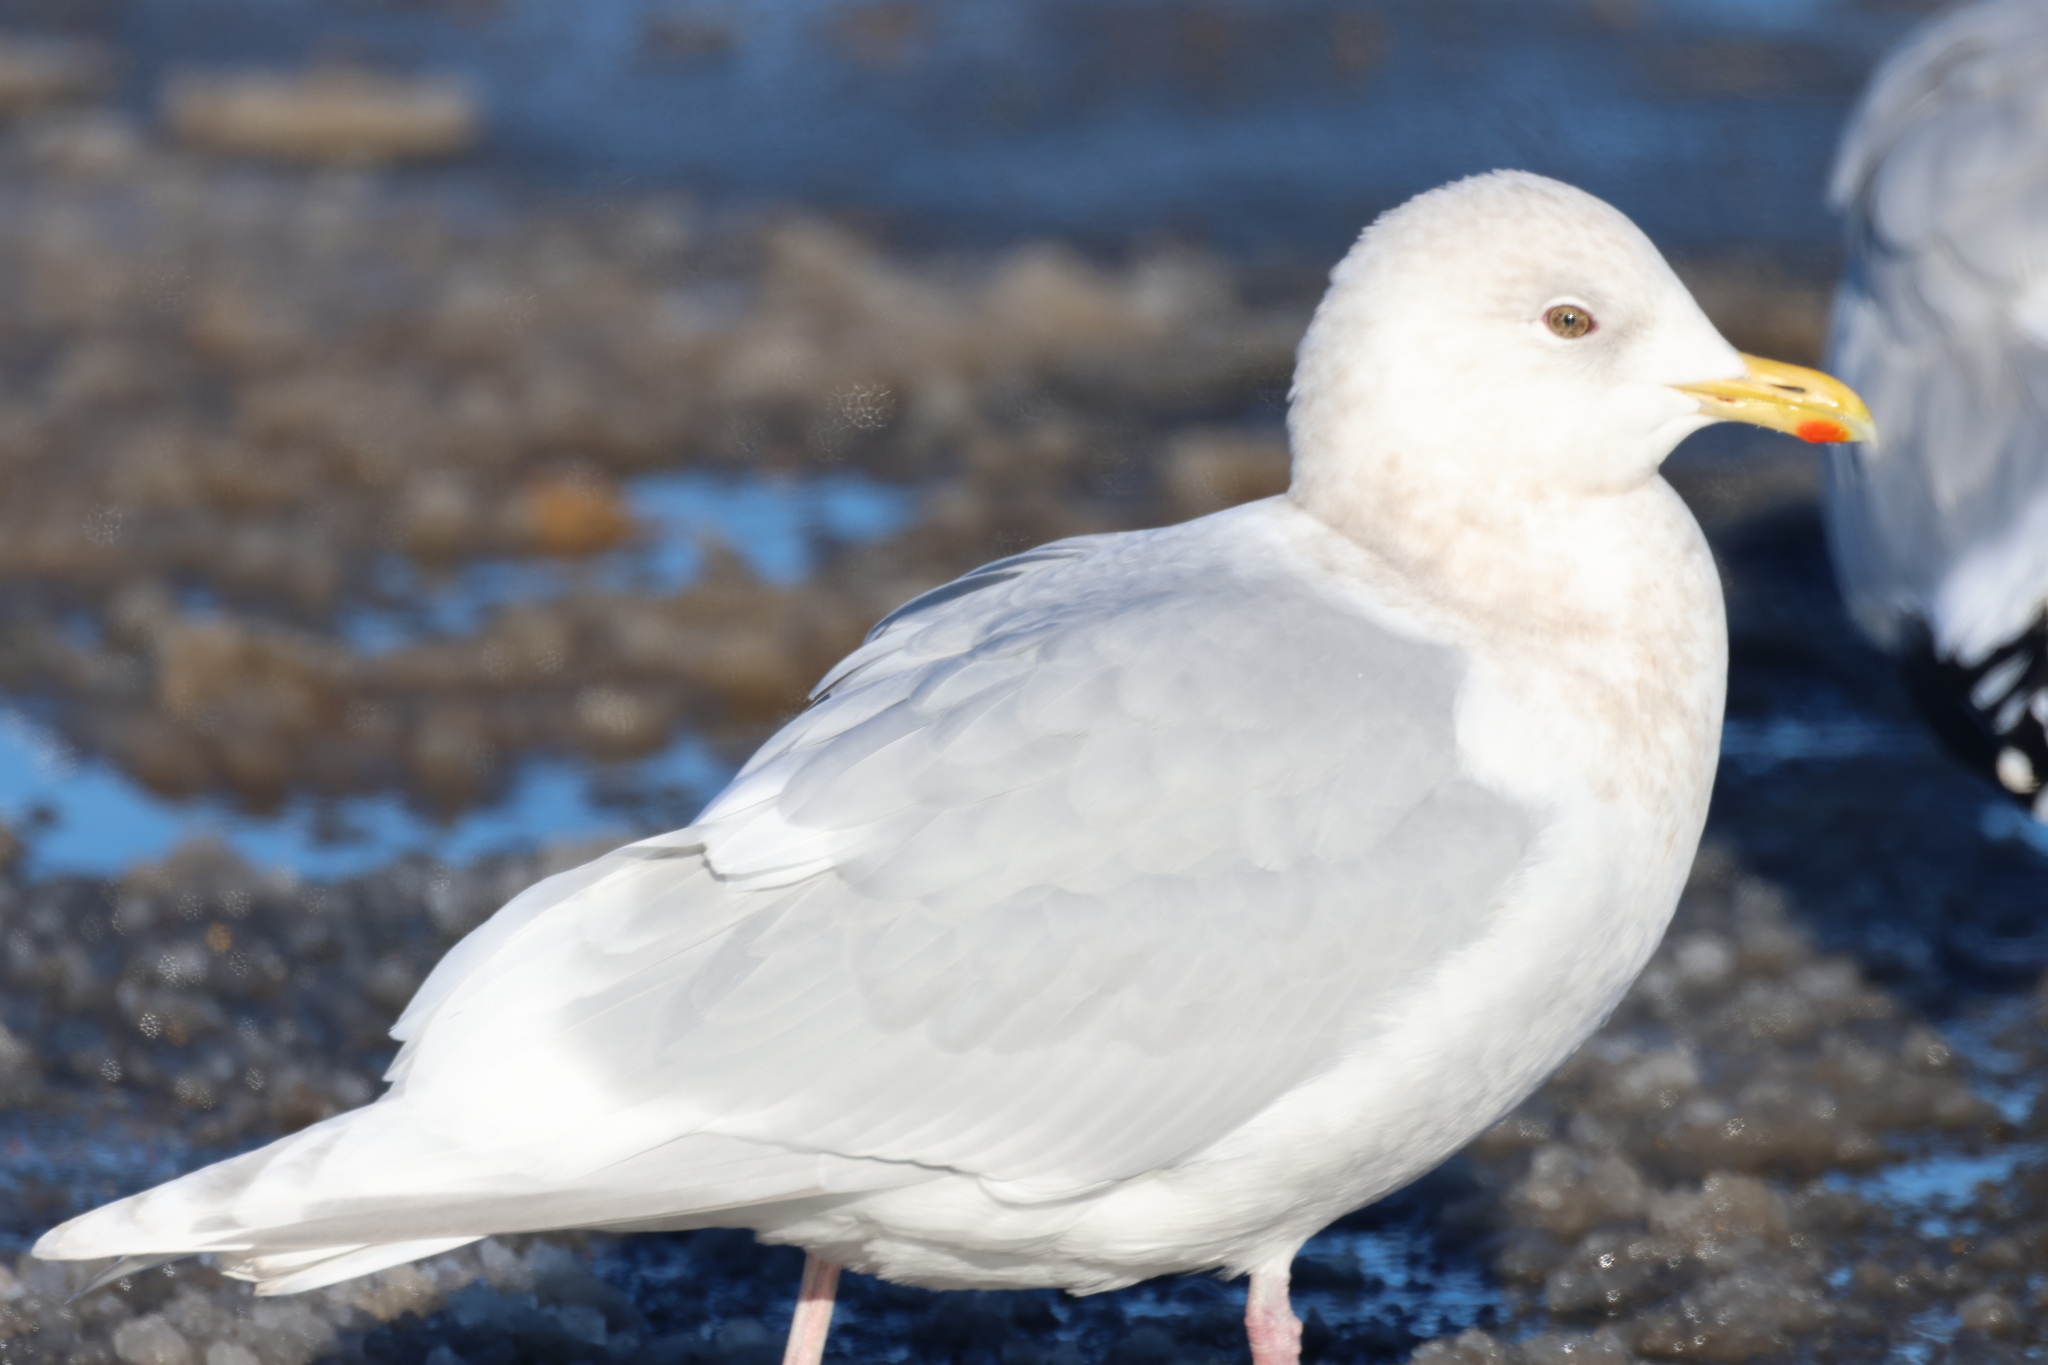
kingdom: Animalia
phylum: Chordata
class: Aves
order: Charadriiformes
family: Laridae
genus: Larus
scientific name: Larus glaucoides
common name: Iceland gull
